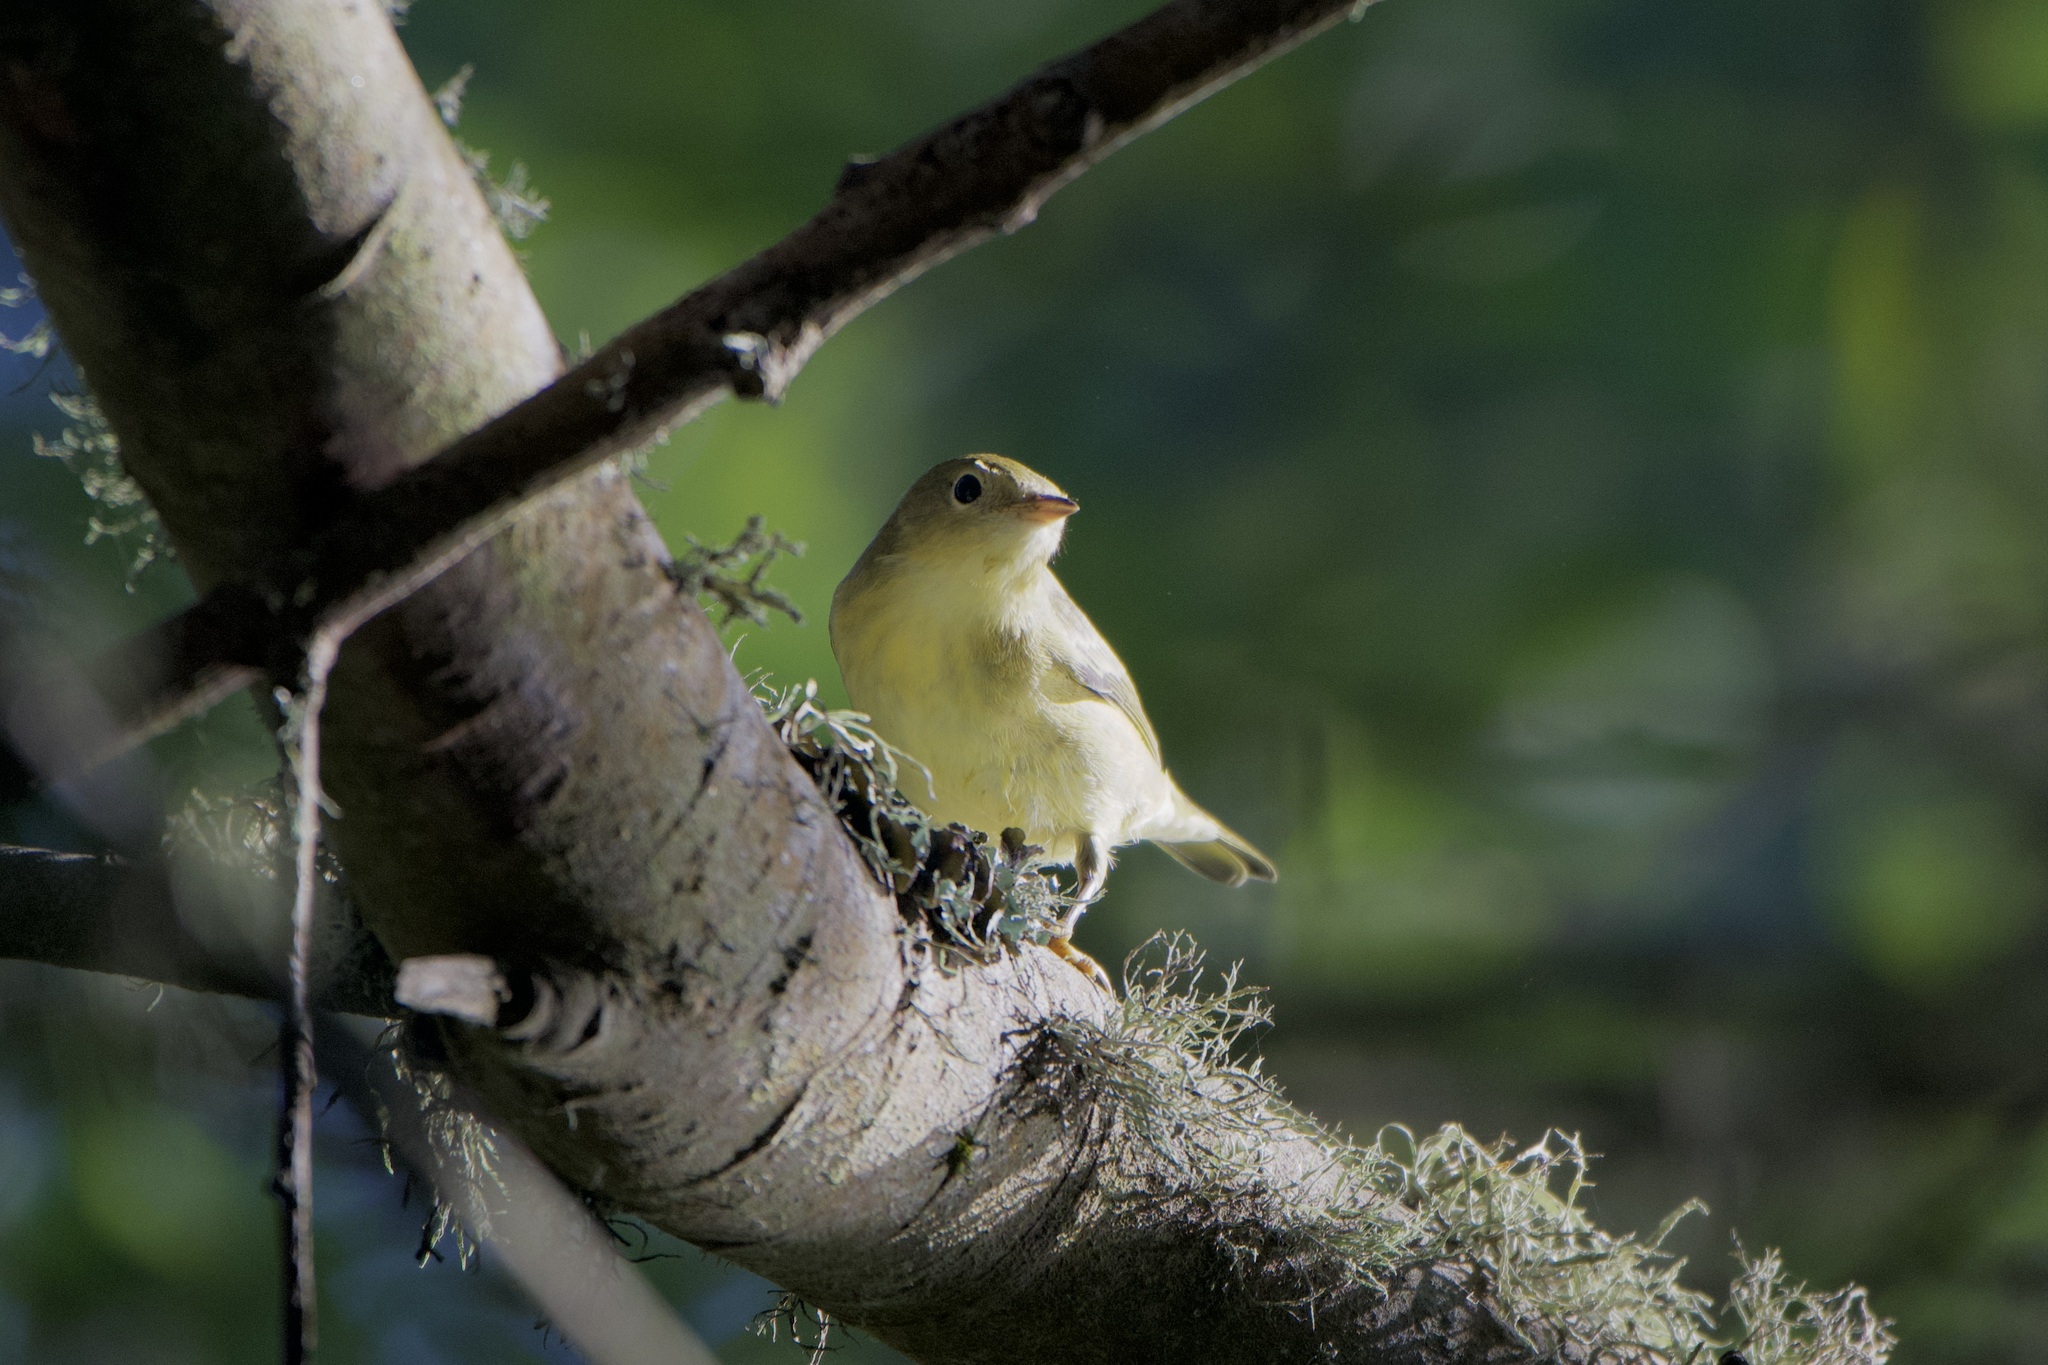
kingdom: Animalia
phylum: Chordata
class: Aves
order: Passeriformes
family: Parulidae
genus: Setophaga
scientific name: Setophaga petechia
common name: Yellow warbler
